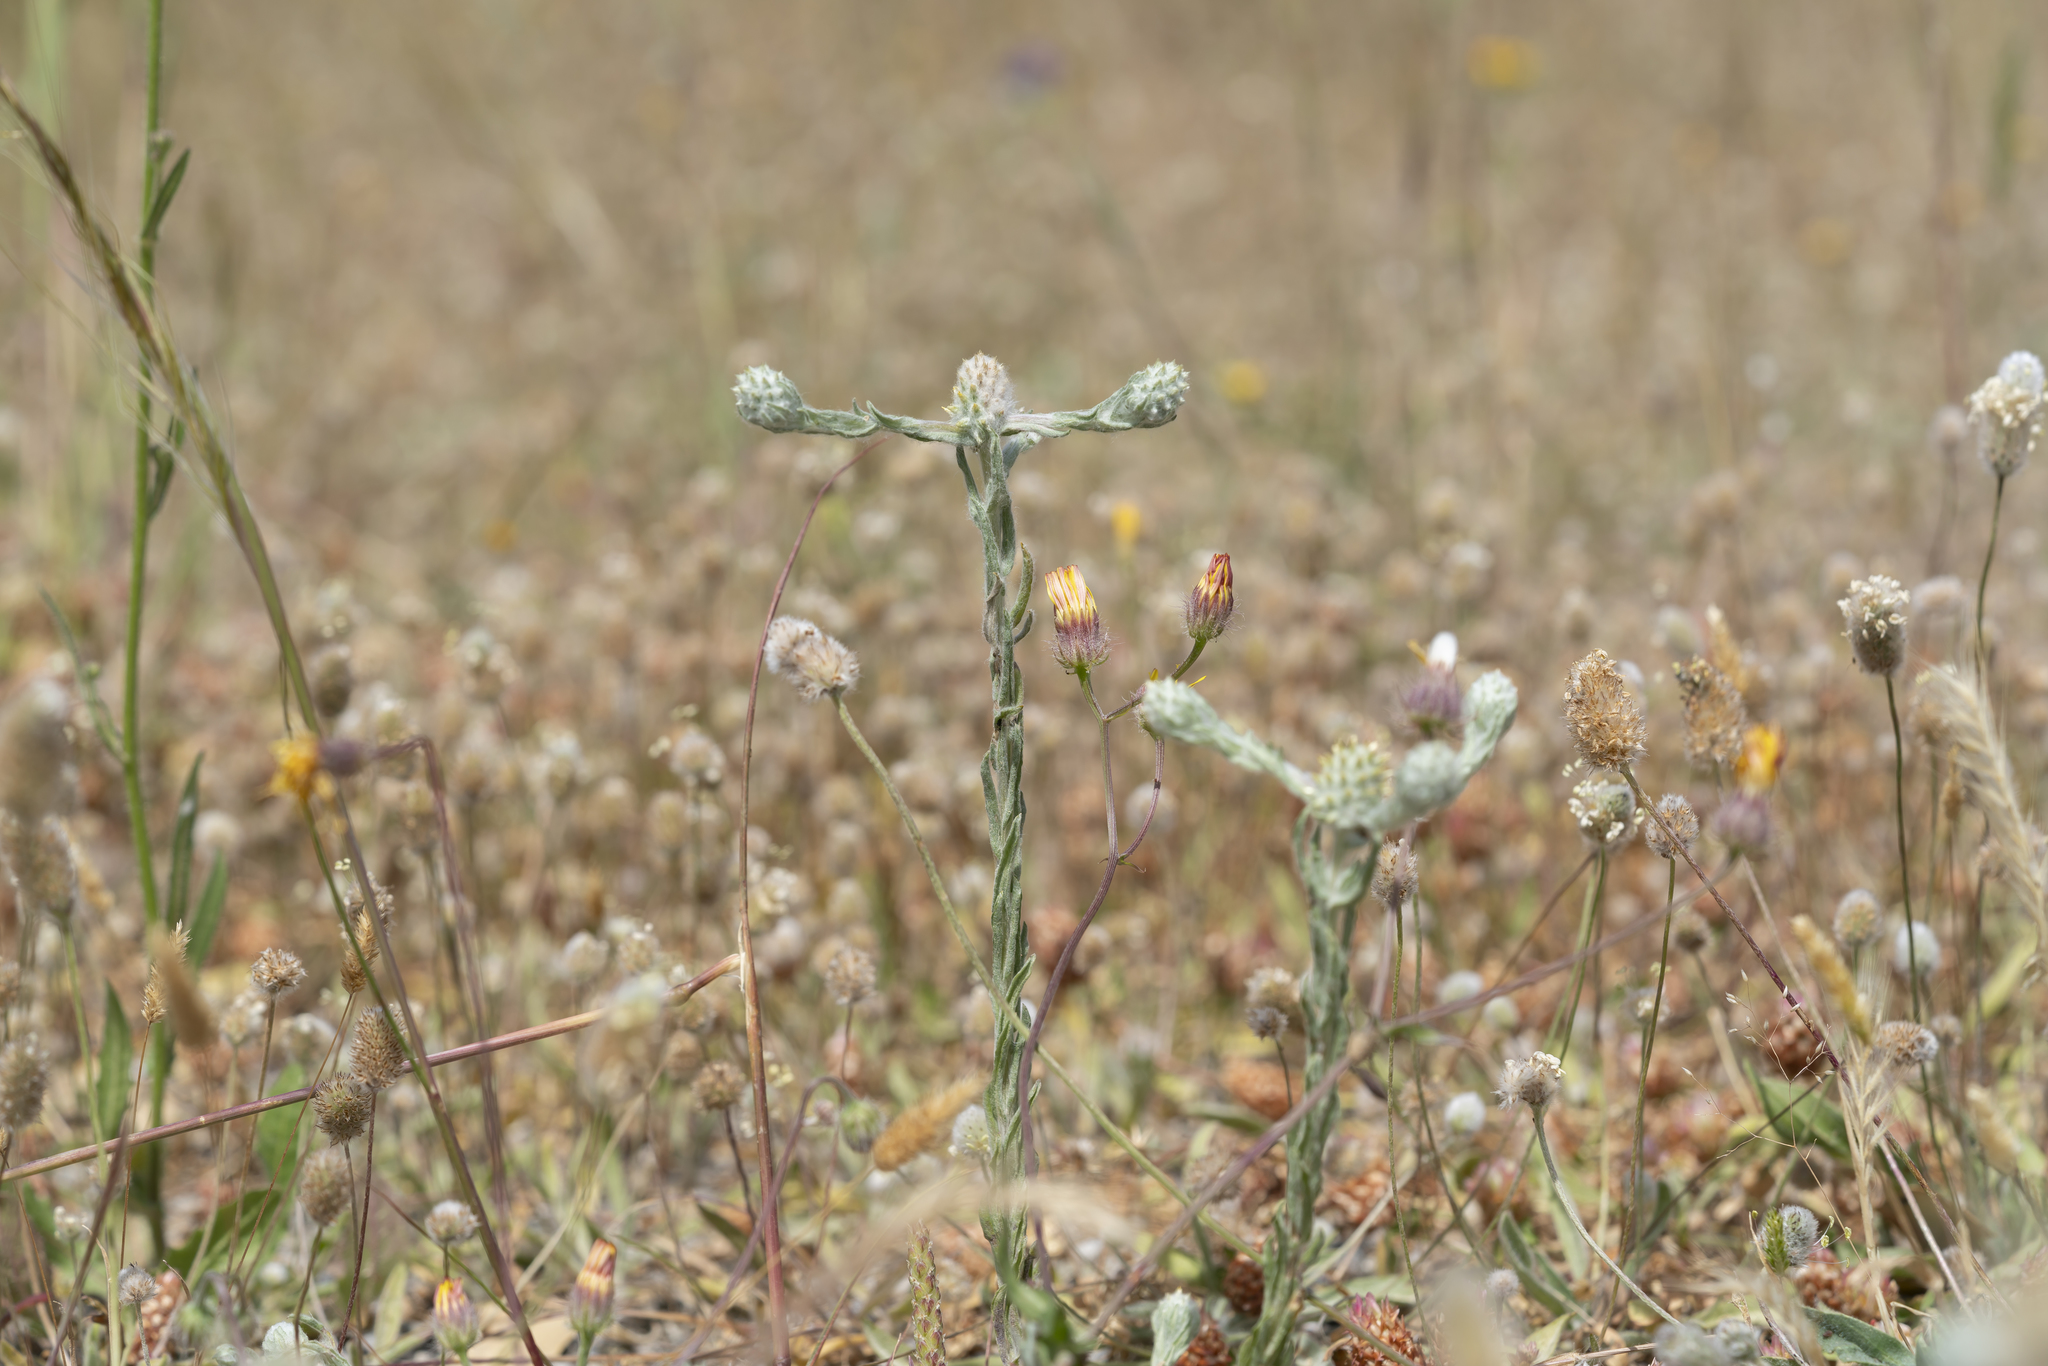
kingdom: Plantae
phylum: Tracheophyta
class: Magnoliopsida
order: Asterales
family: Asteraceae
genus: Filago
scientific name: Filago eriocephala
